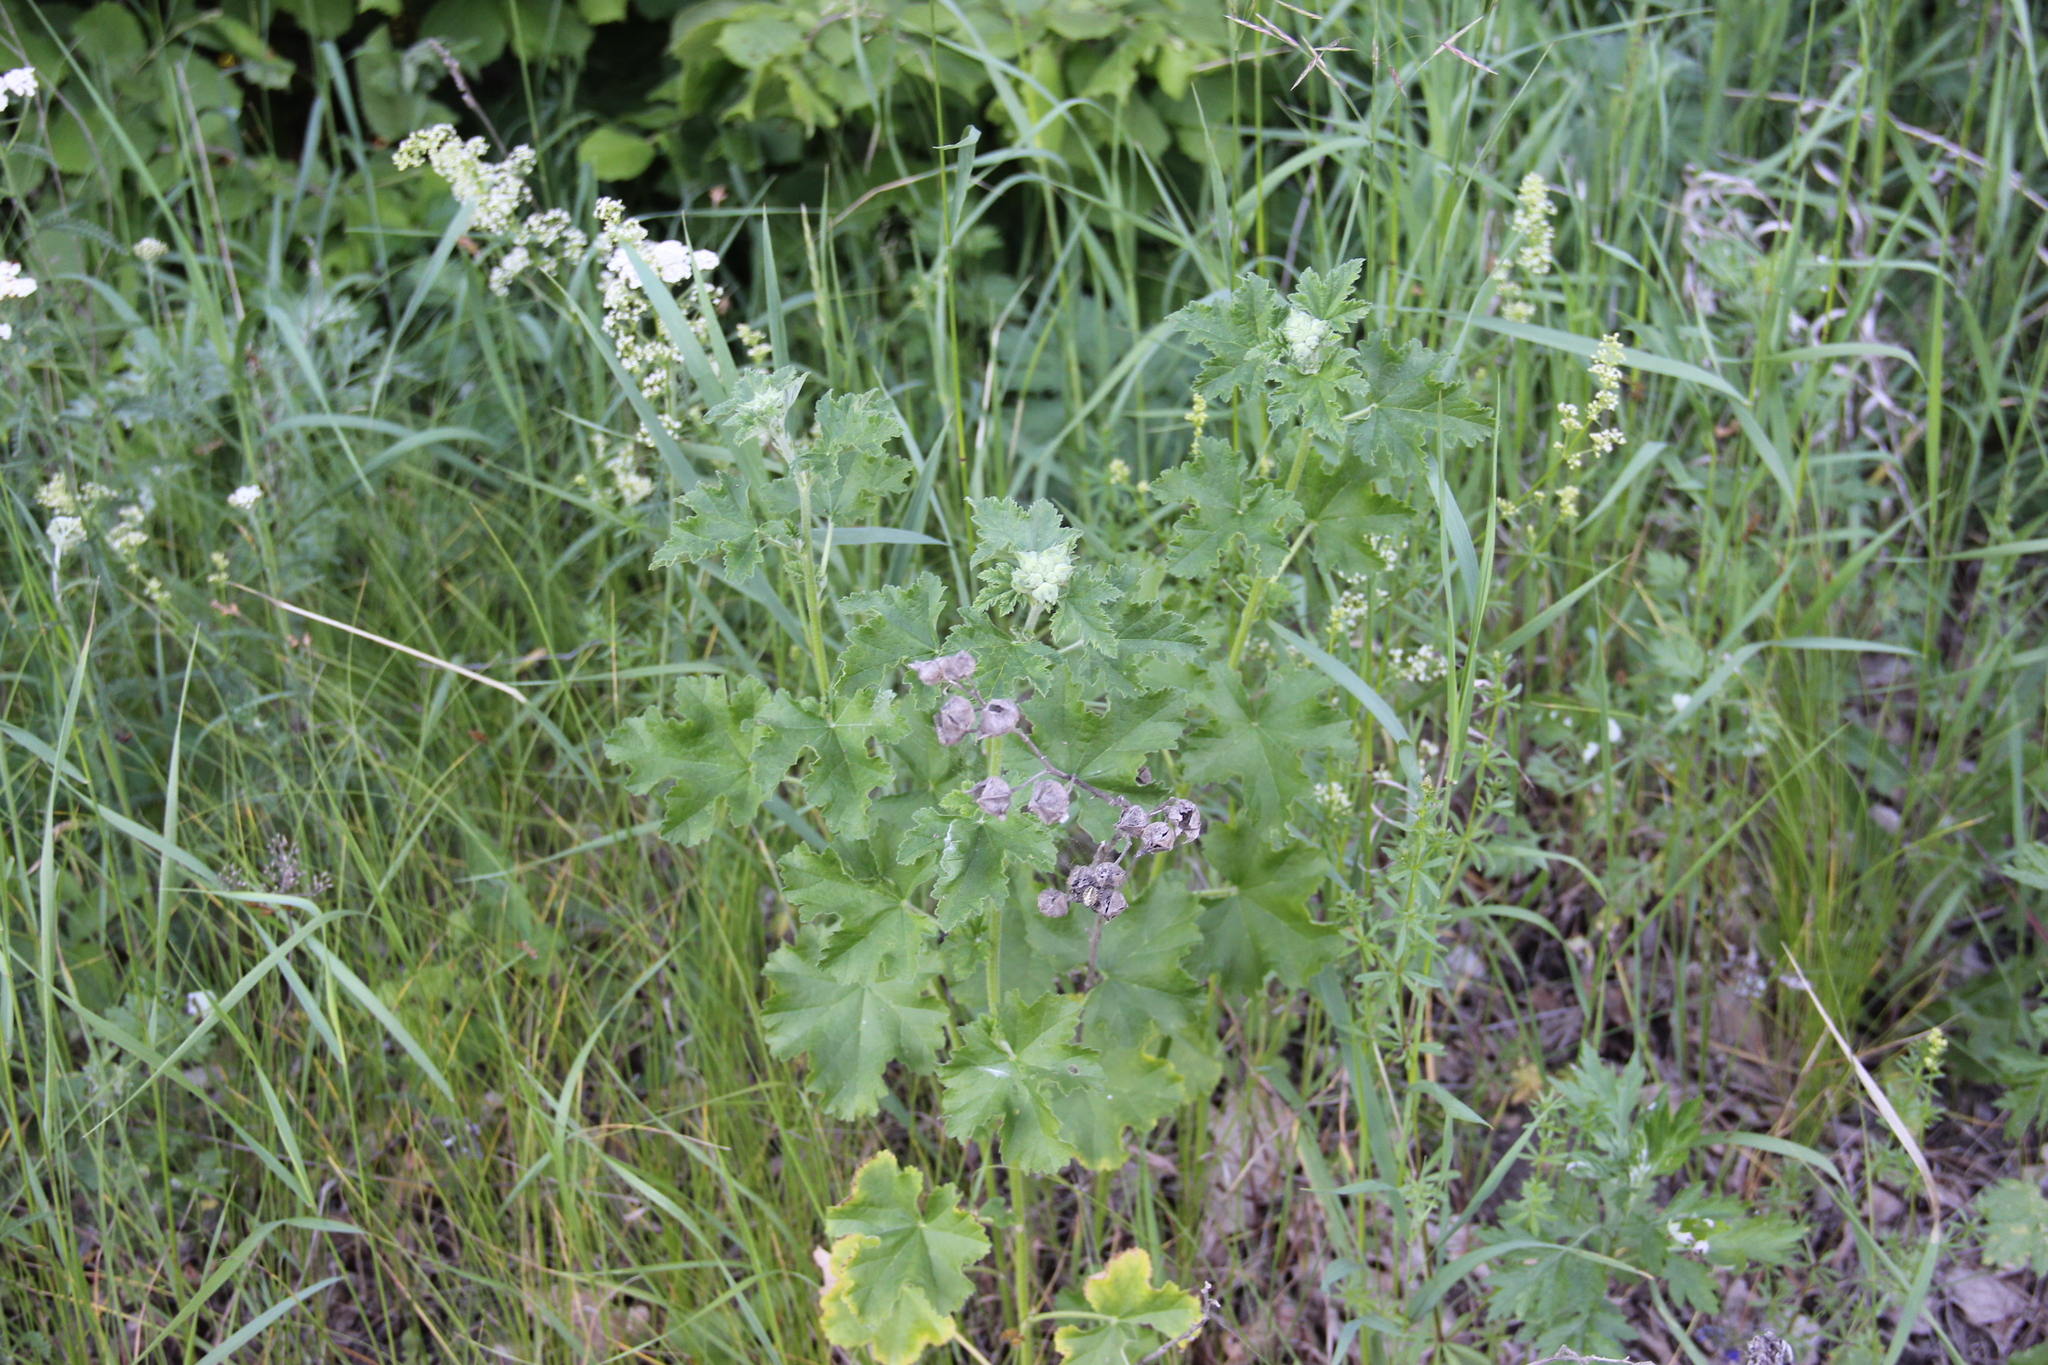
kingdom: Plantae
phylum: Tracheophyta
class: Magnoliopsida
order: Malvales
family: Malvaceae
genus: Malva
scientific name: Malva thuringiaca
